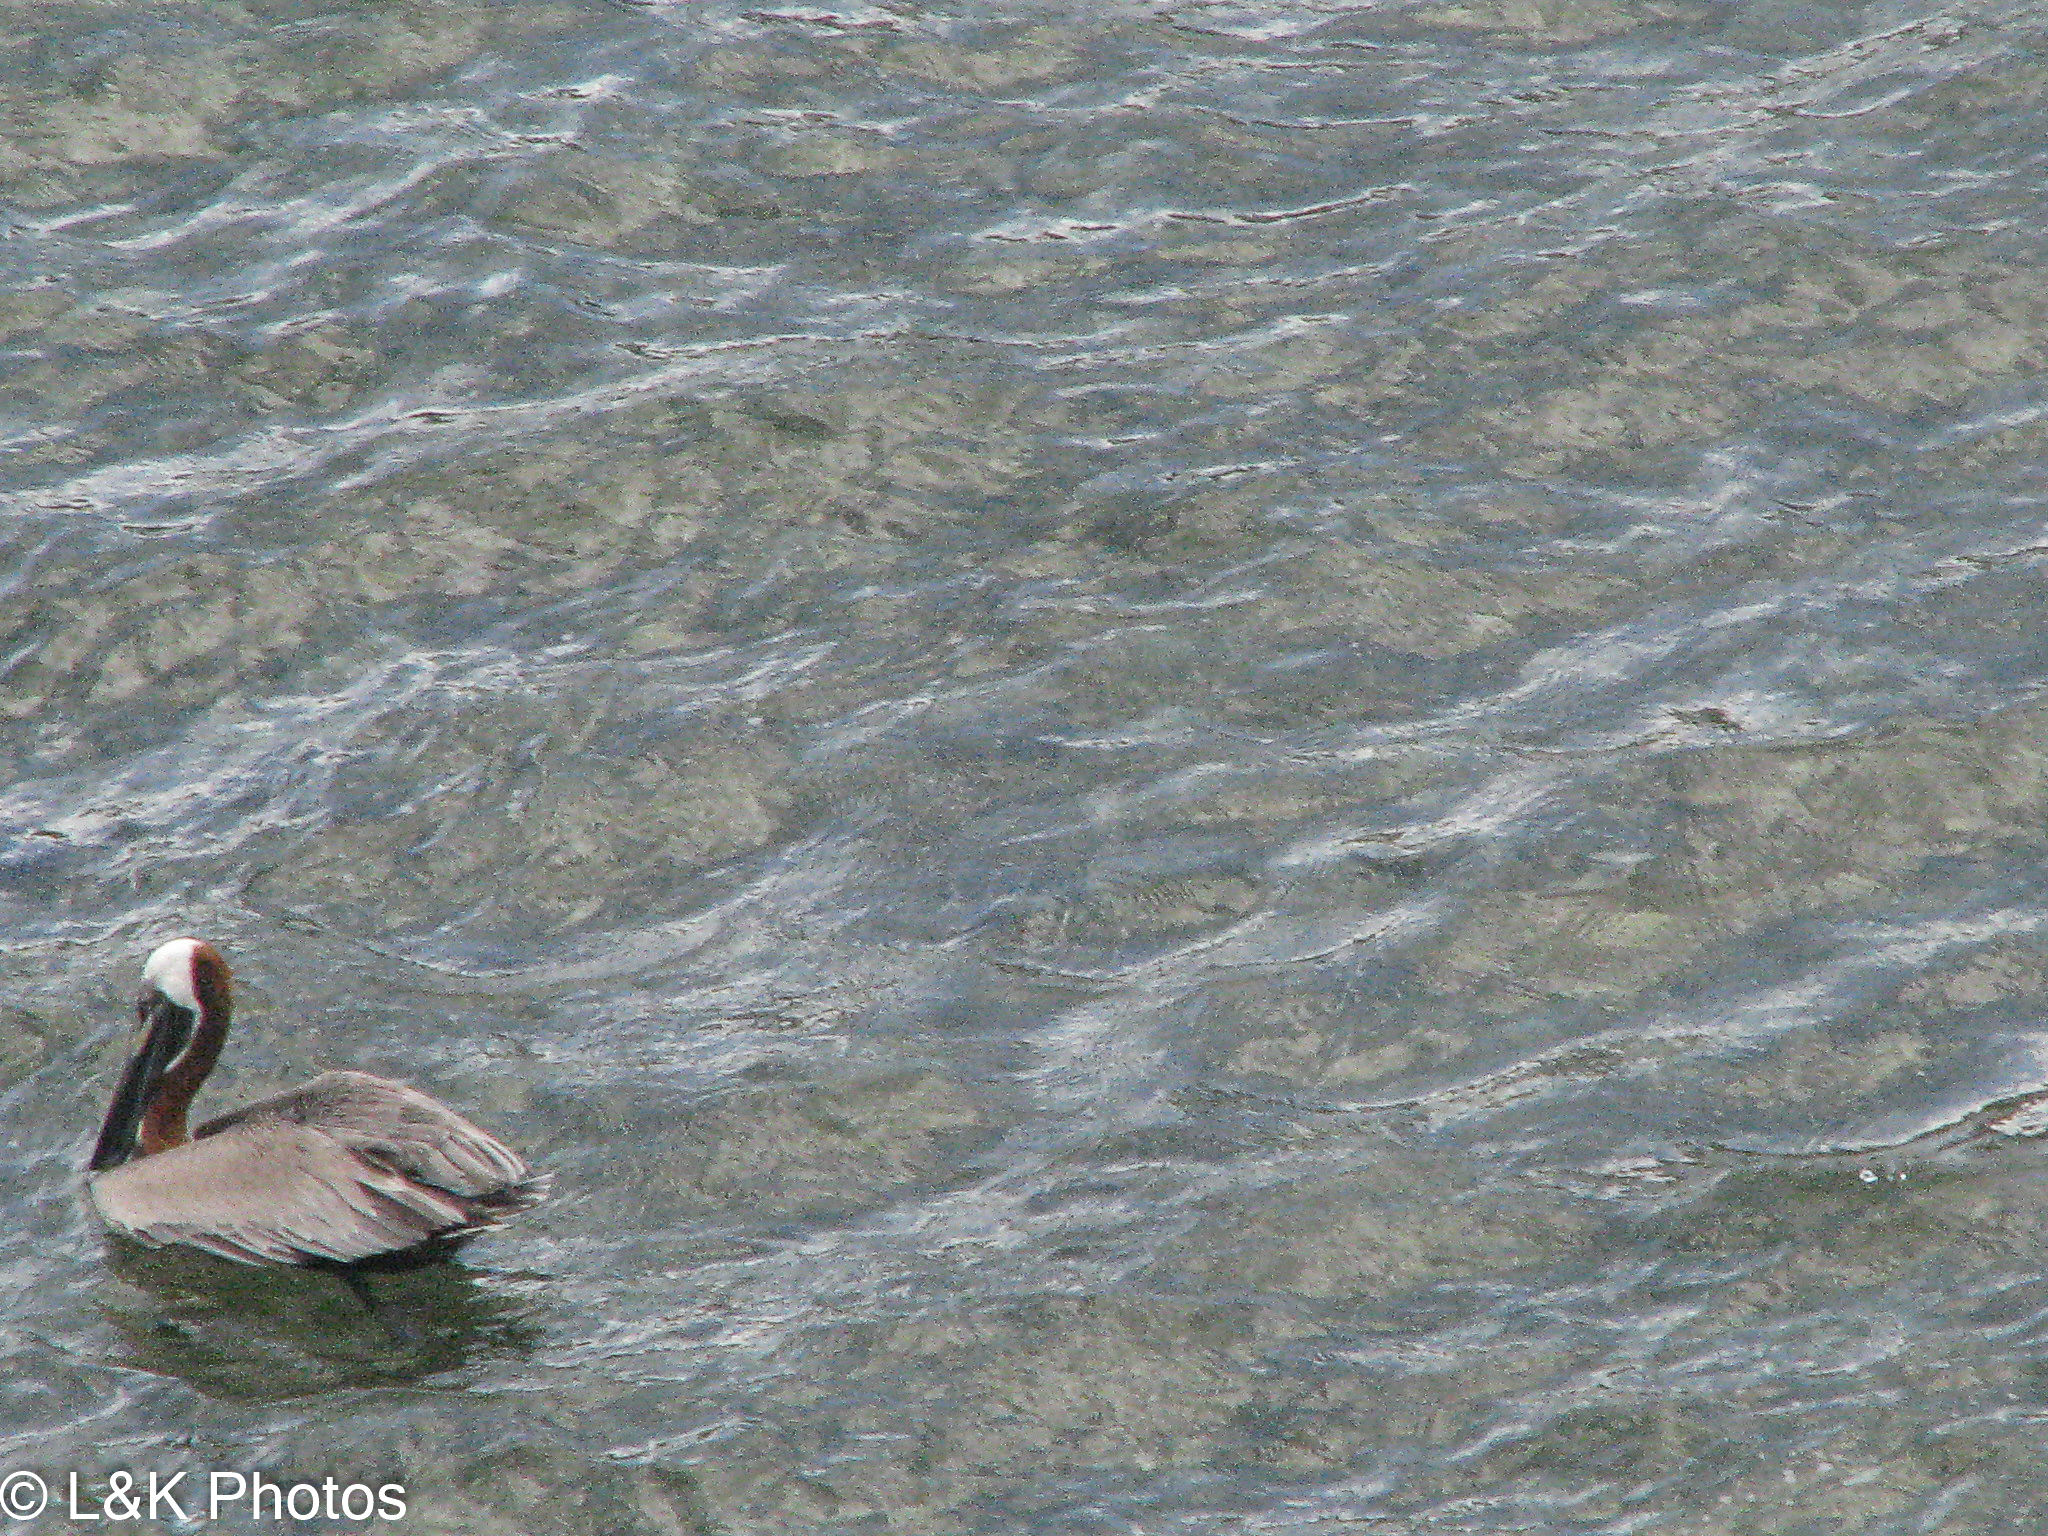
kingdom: Animalia
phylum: Chordata
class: Aves
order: Pelecaniformes
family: Pelecanidae
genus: Pelecanus
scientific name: Pelecanus occidentalis
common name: Brown pelican
